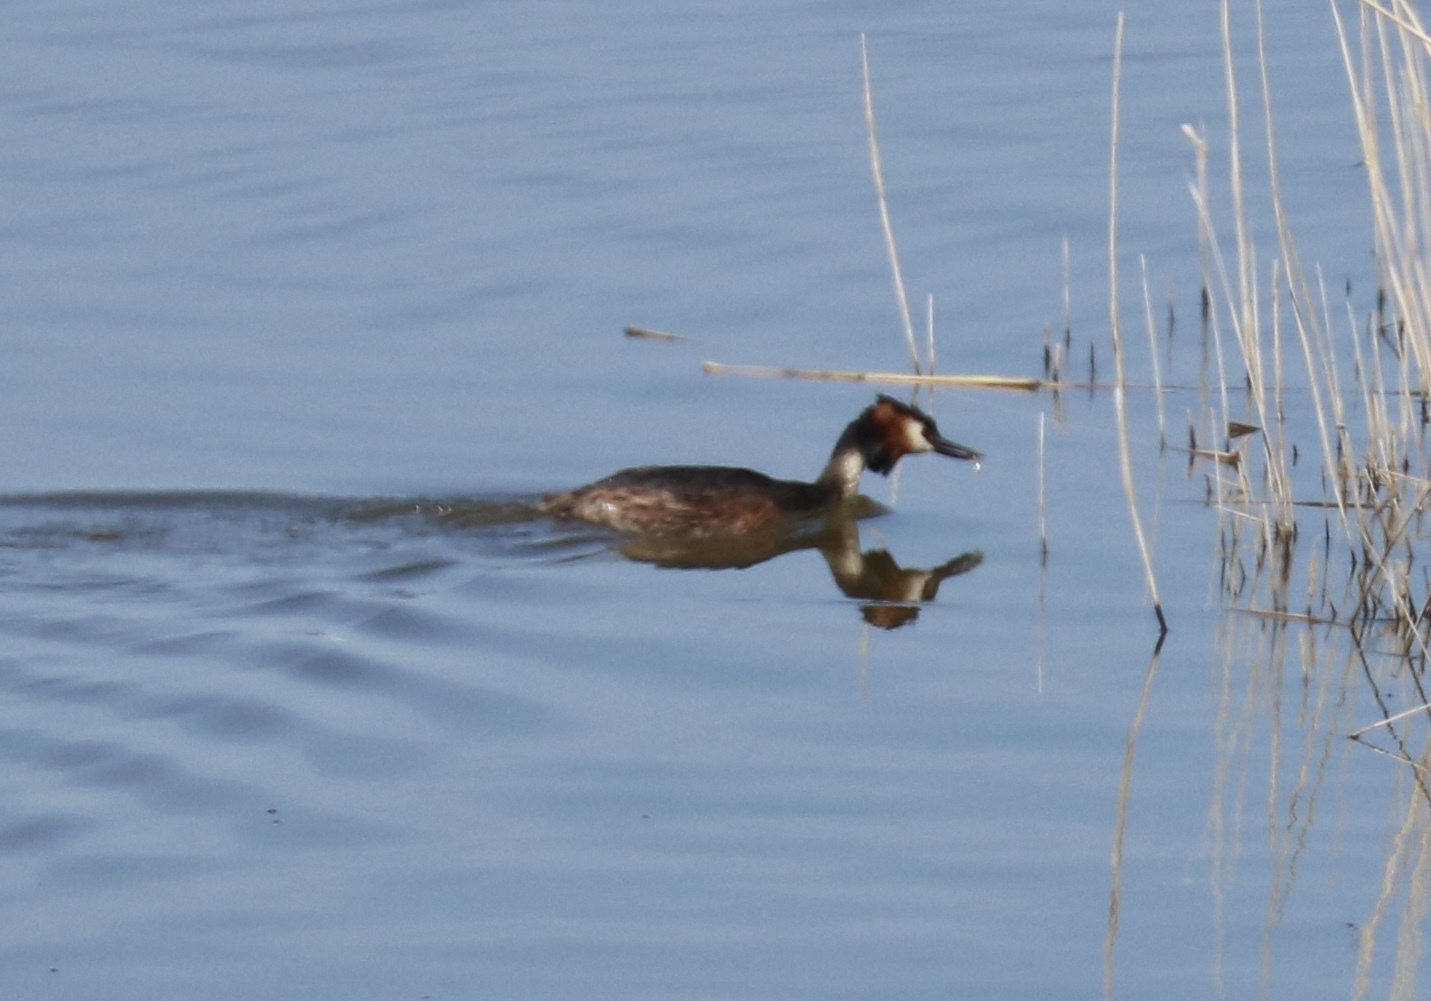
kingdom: Animalia
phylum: Chordata
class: Aves
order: Podicipediformes
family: Podicipedidae
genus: Podiceps
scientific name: Podiceps cristatus
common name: Great crested grebe
